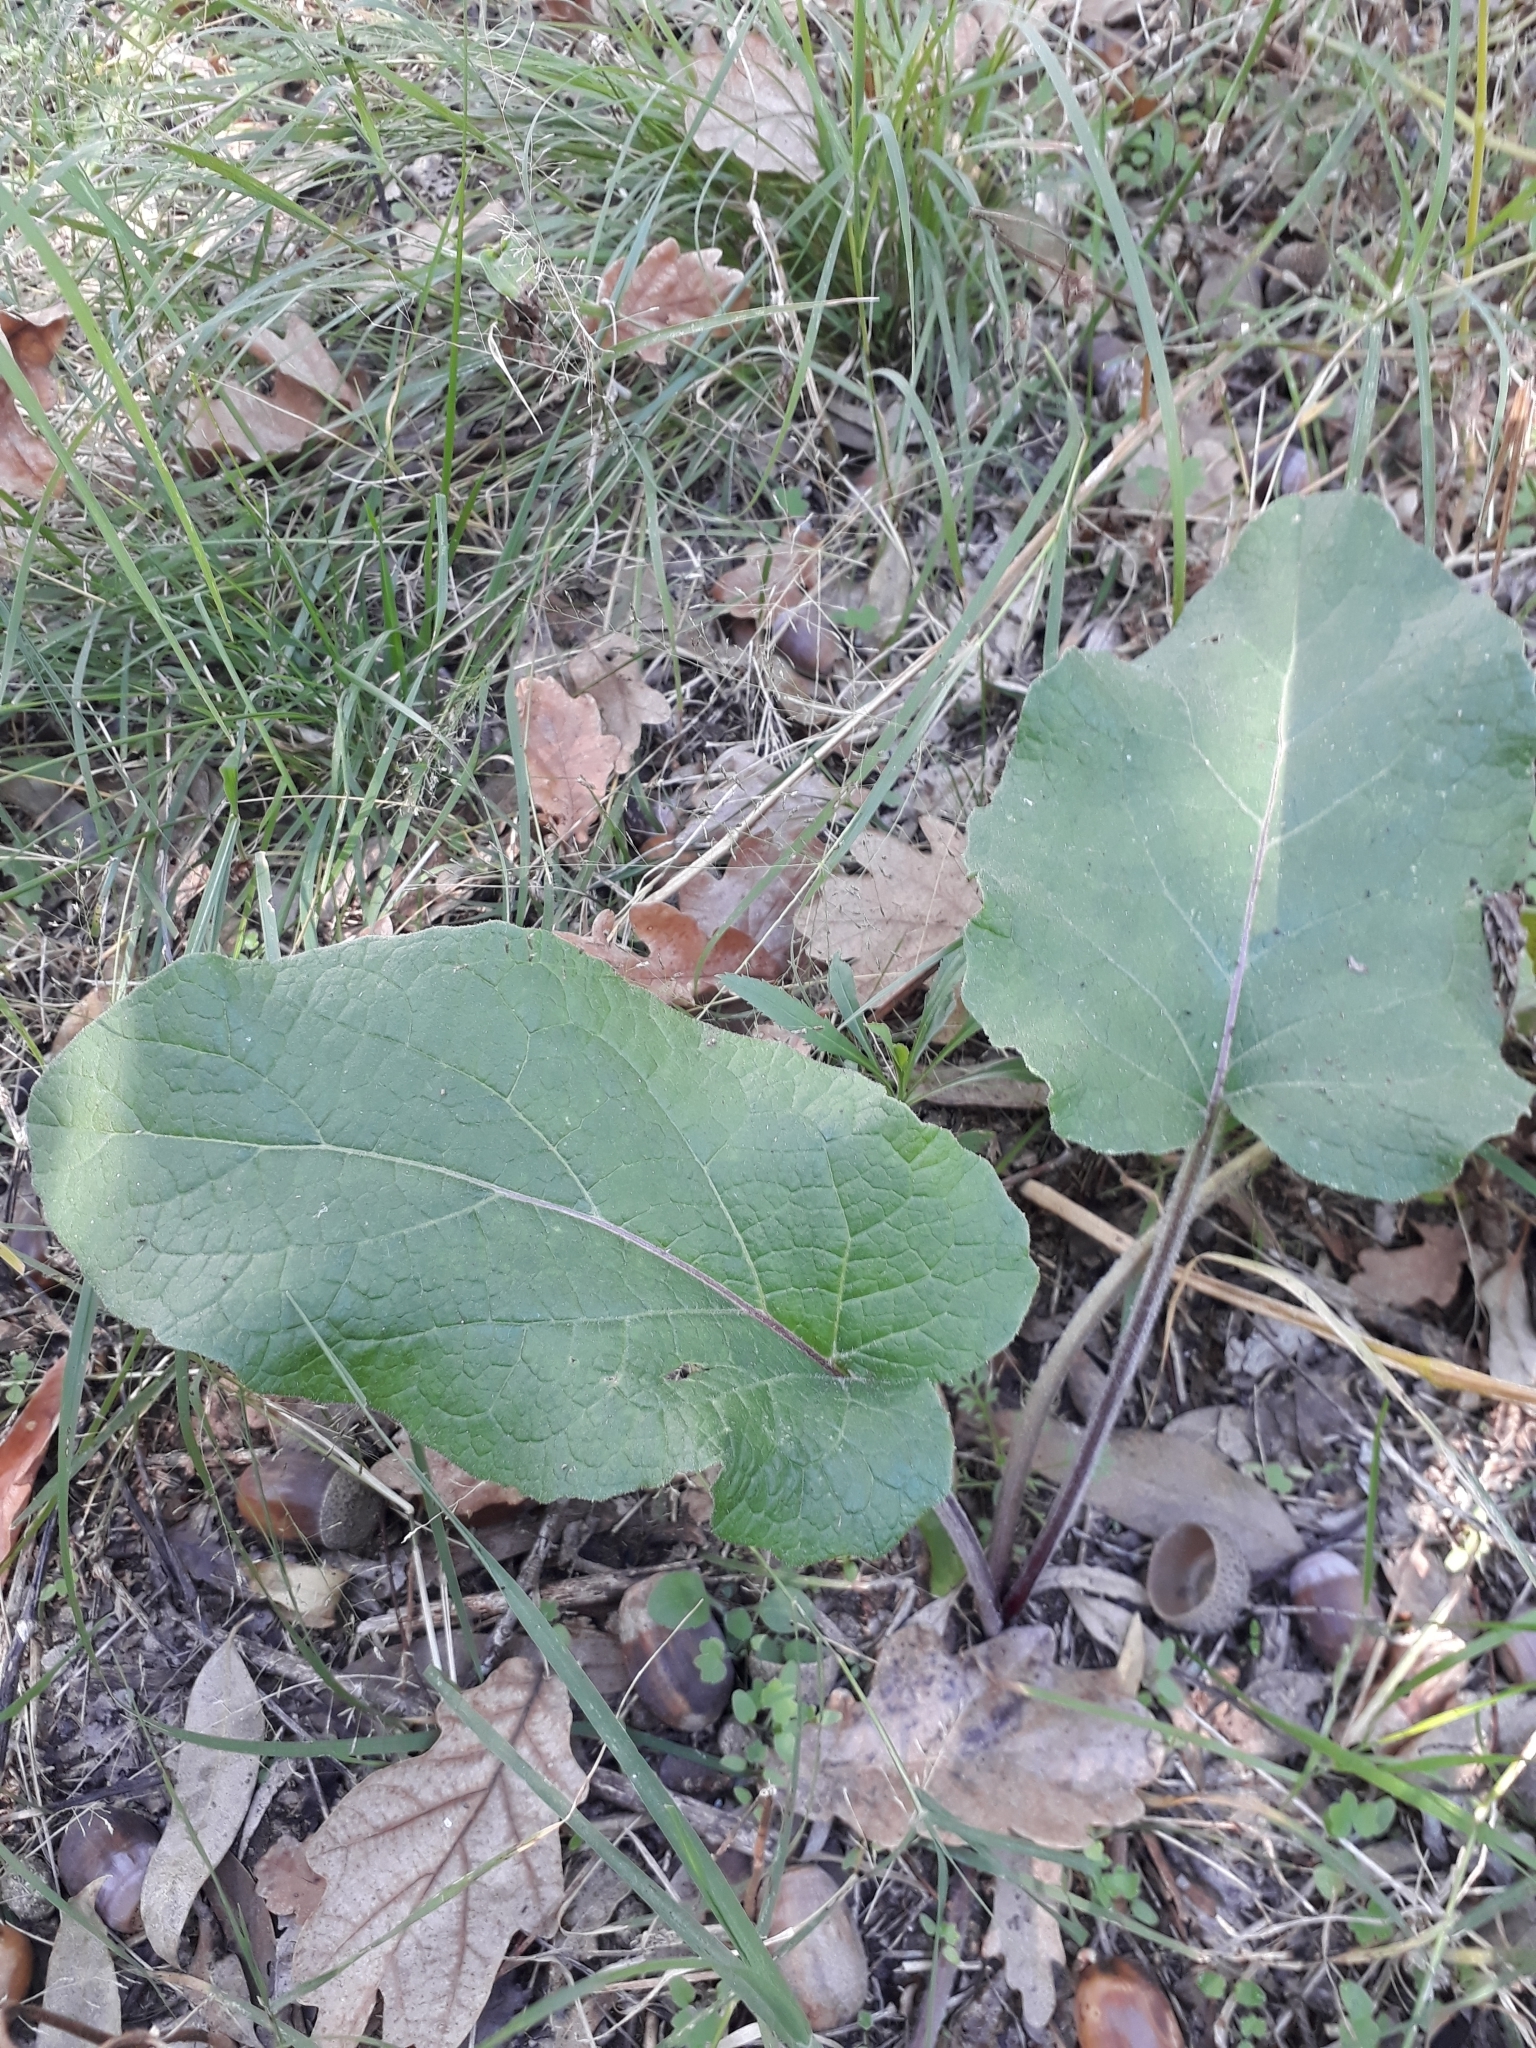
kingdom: Plantae
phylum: Tracheophyta
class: Magnoliopsida
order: Asterales
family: Asteraceae
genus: Arctium
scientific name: Arctium minus
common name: Lesser burdock
